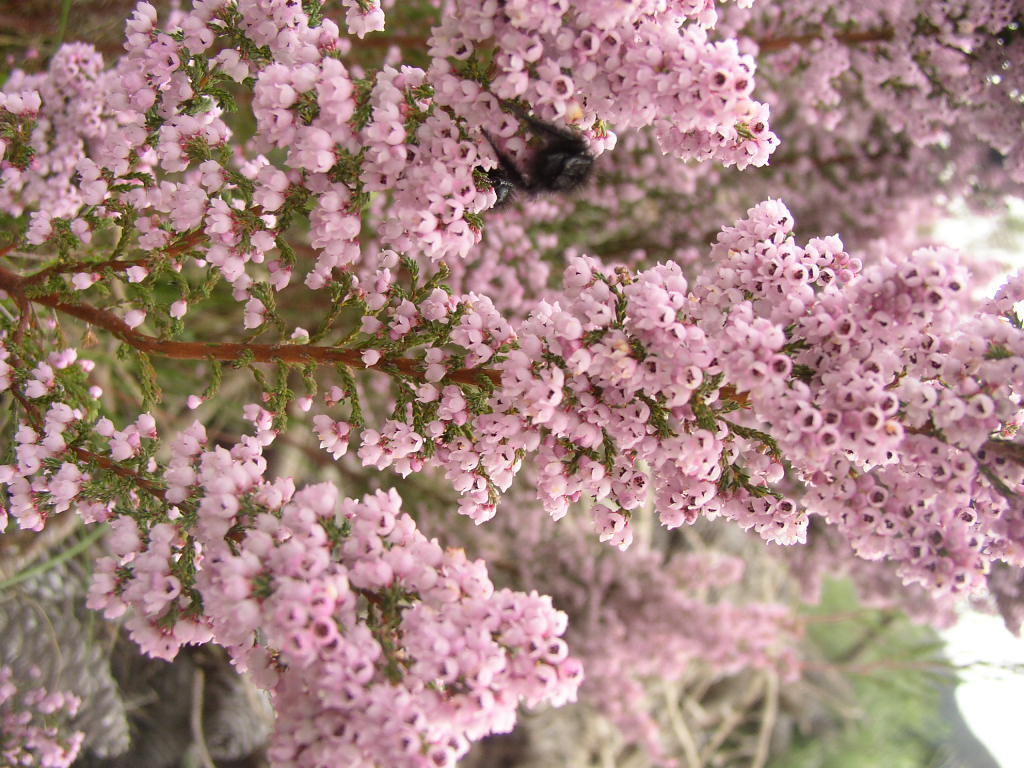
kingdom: Plantae
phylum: Tracheophyta
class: Magnoliopsida
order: Ericales
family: Ericaceae
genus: Erica
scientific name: Erica mauritanica
